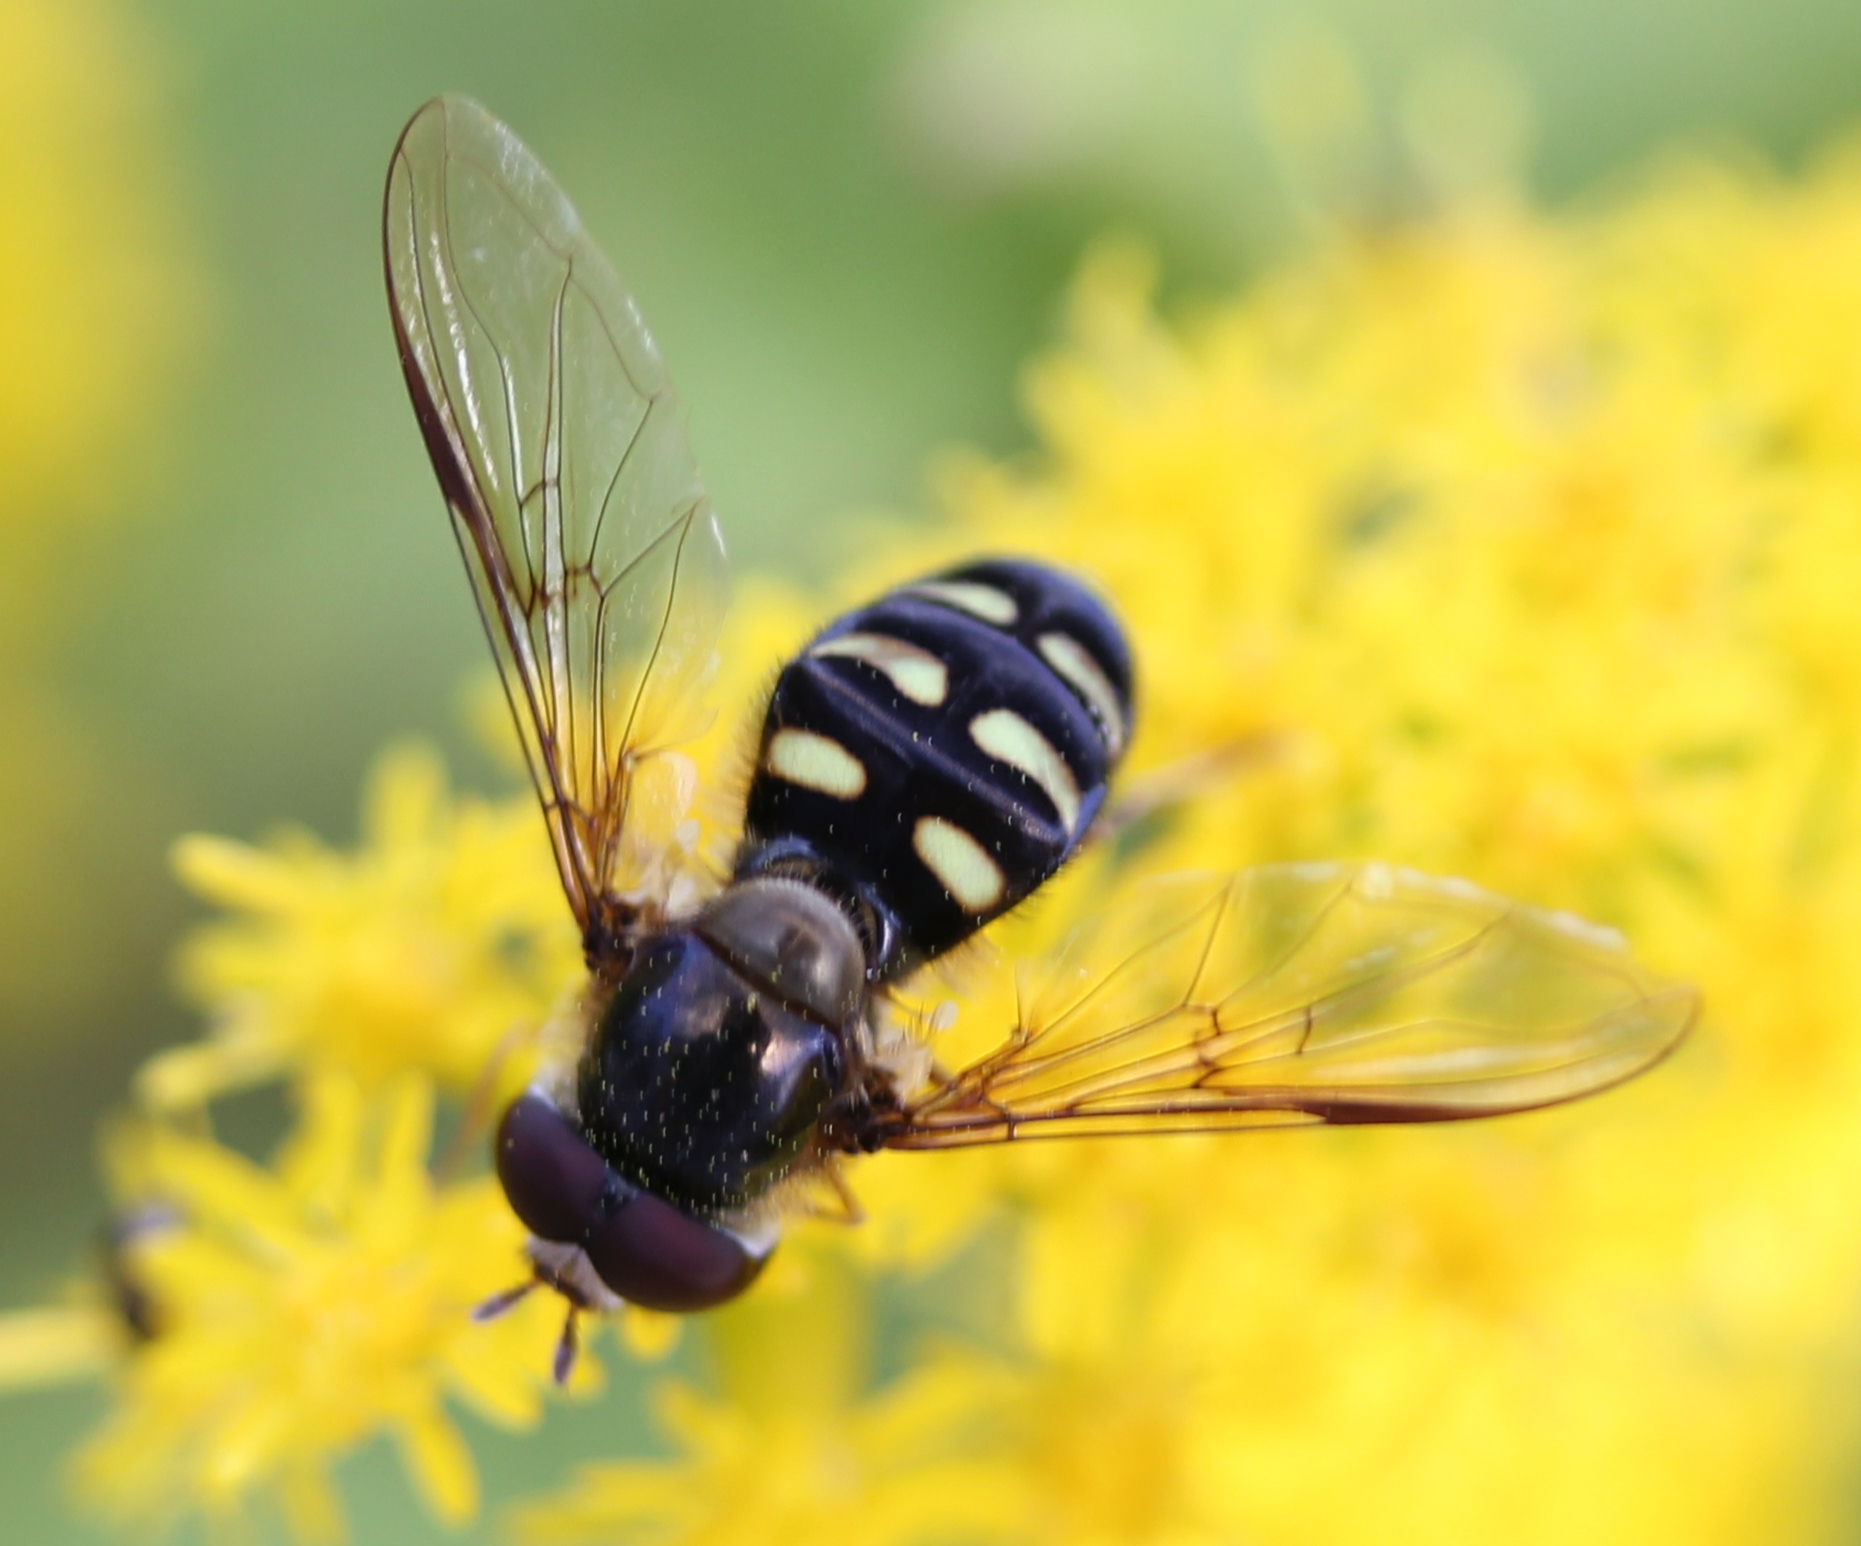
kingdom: Animalia
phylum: Arthropoda
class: Insecta
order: Diptera
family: Syrphidae
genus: Lapposyrphus
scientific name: Lapposyrphus lapponicus
